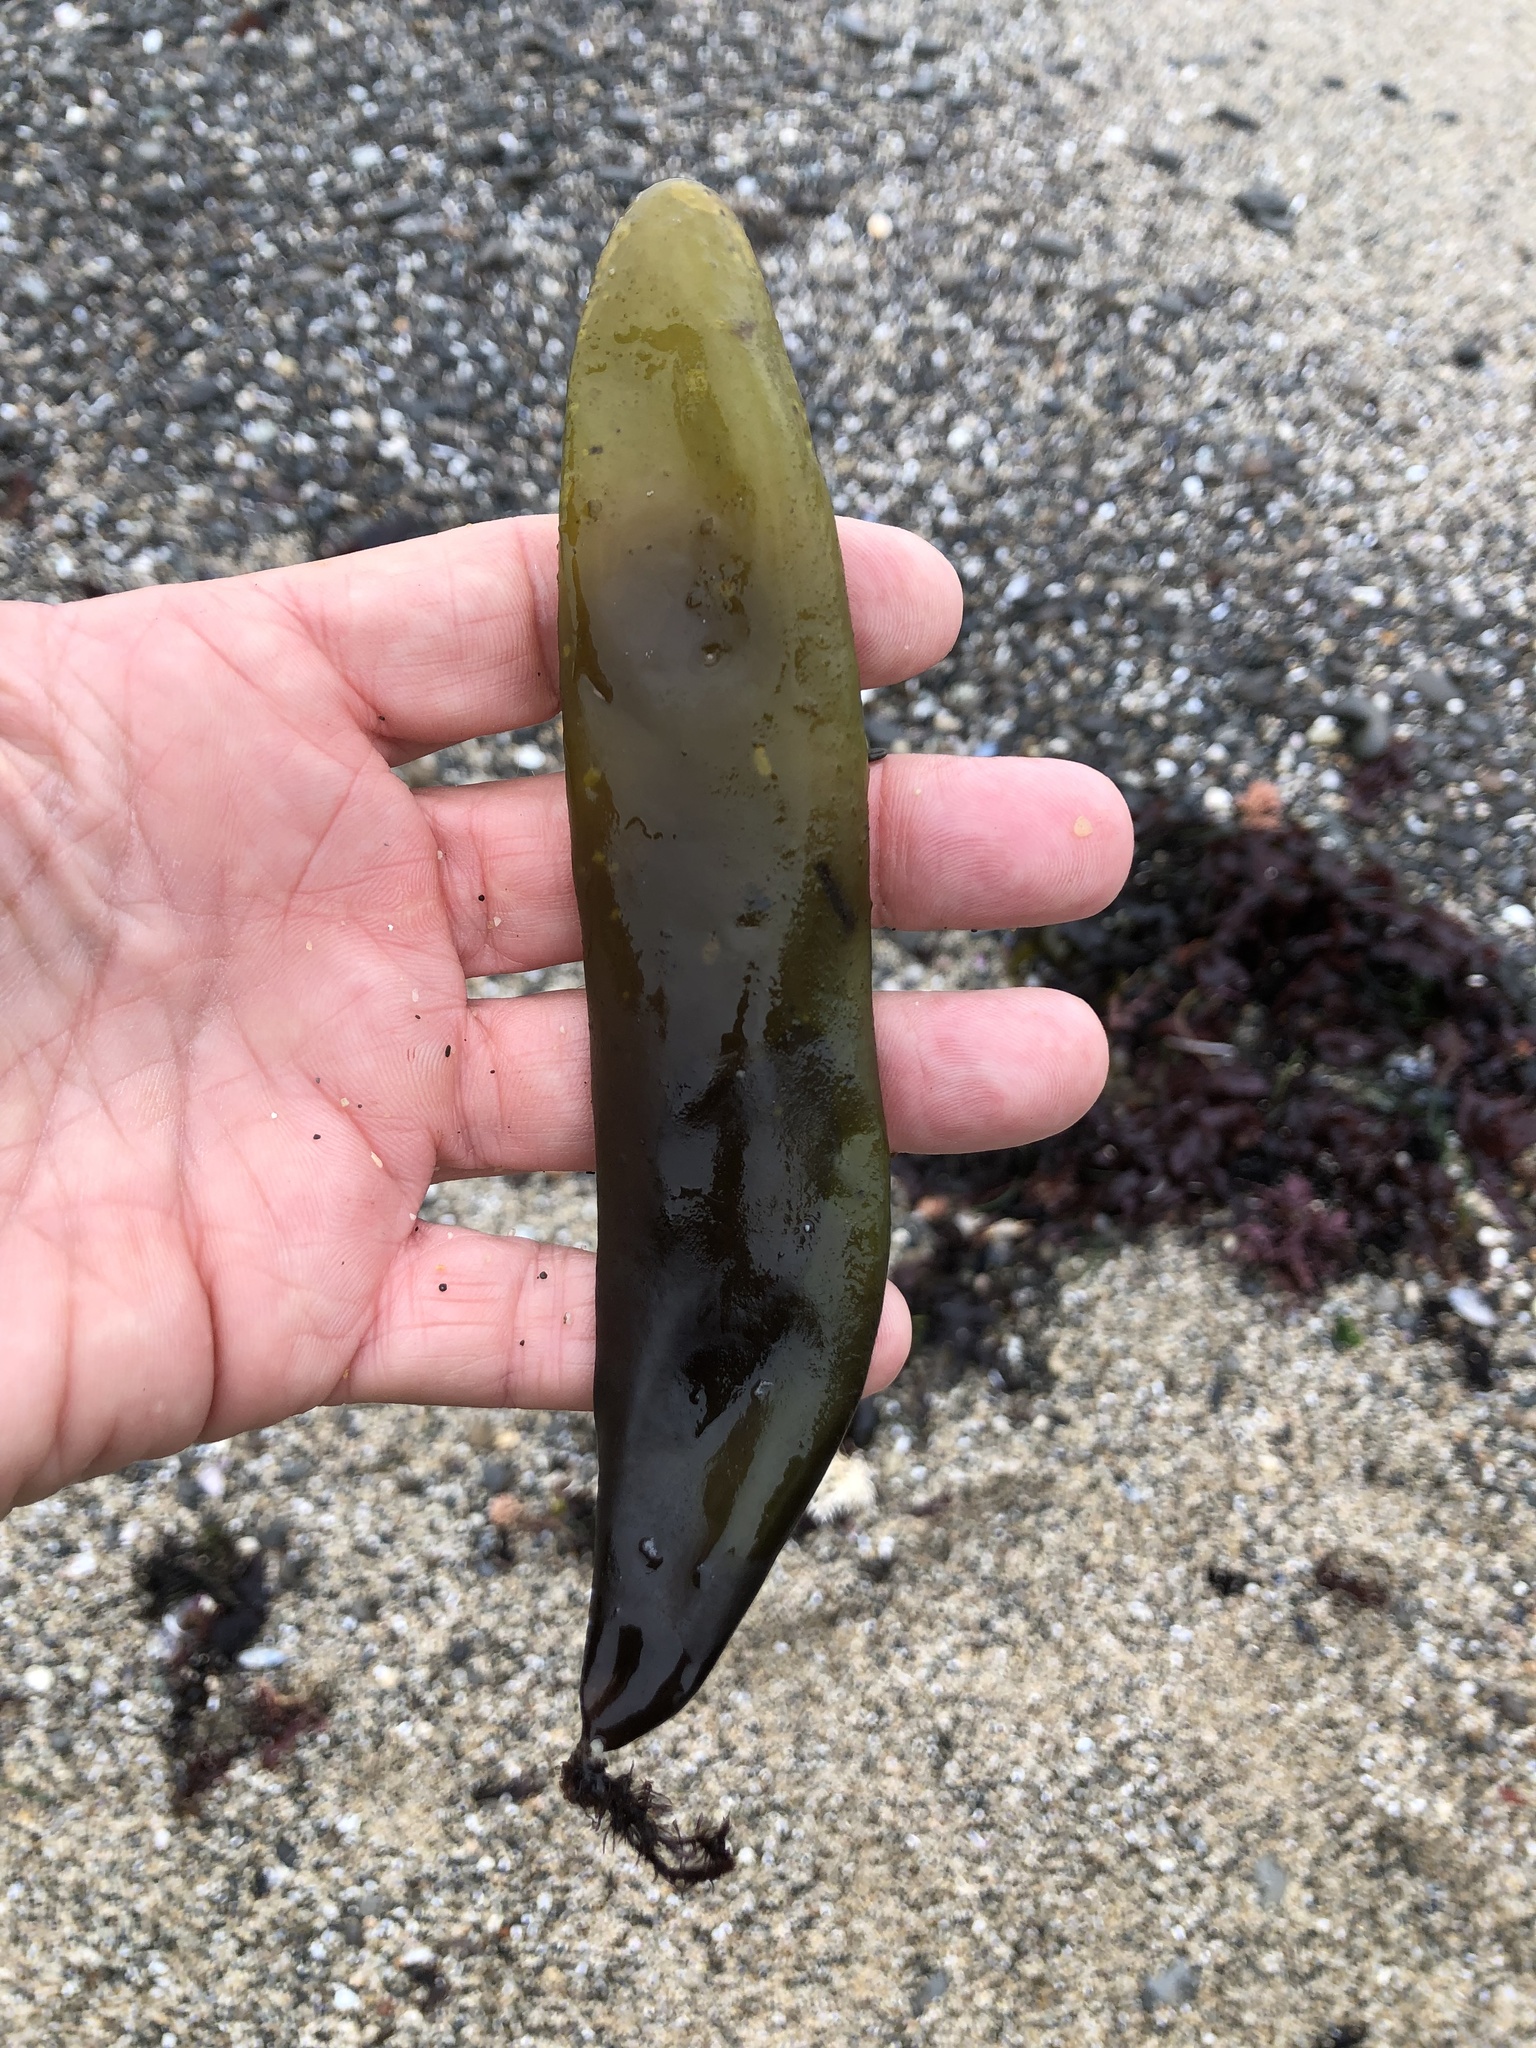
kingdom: Plantae
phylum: Rhodophyta
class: Florideophyceae
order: Palmariales
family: Palmariaceae
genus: Halosaccion
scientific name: Halosaccion glandiforme
